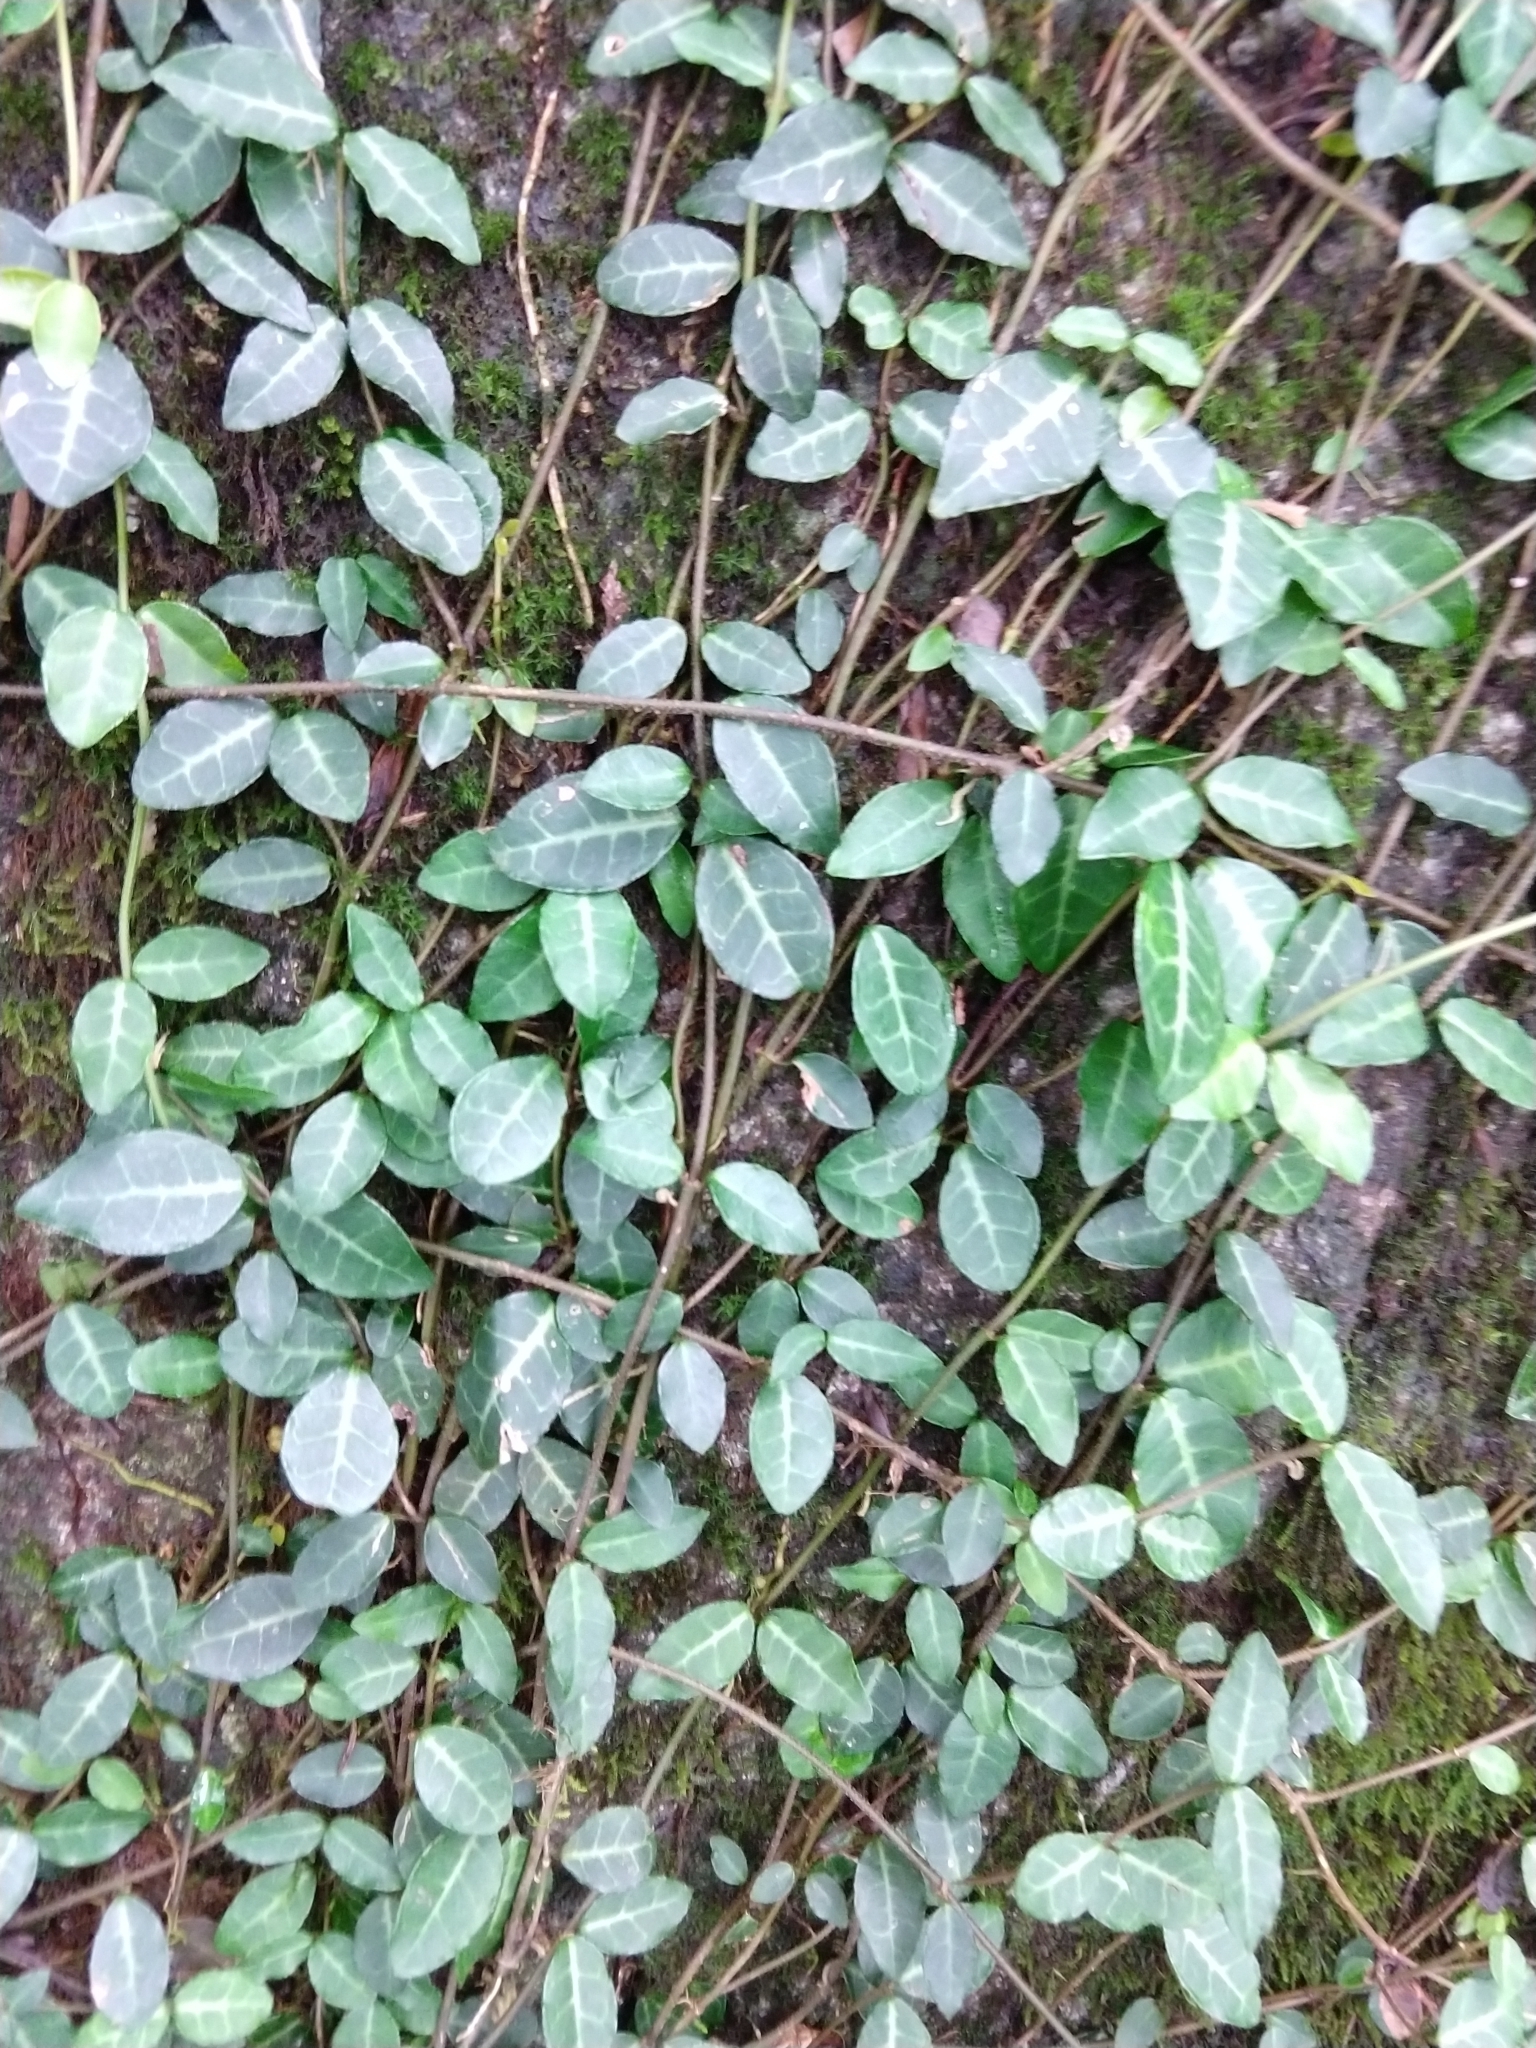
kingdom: Plantae
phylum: Tracheophyta
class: Magnoliopsida
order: Gentianales
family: Apocynaceae
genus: Trachelospermum
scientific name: Trachelospermum asiaticum
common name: Asiatic jasmine
